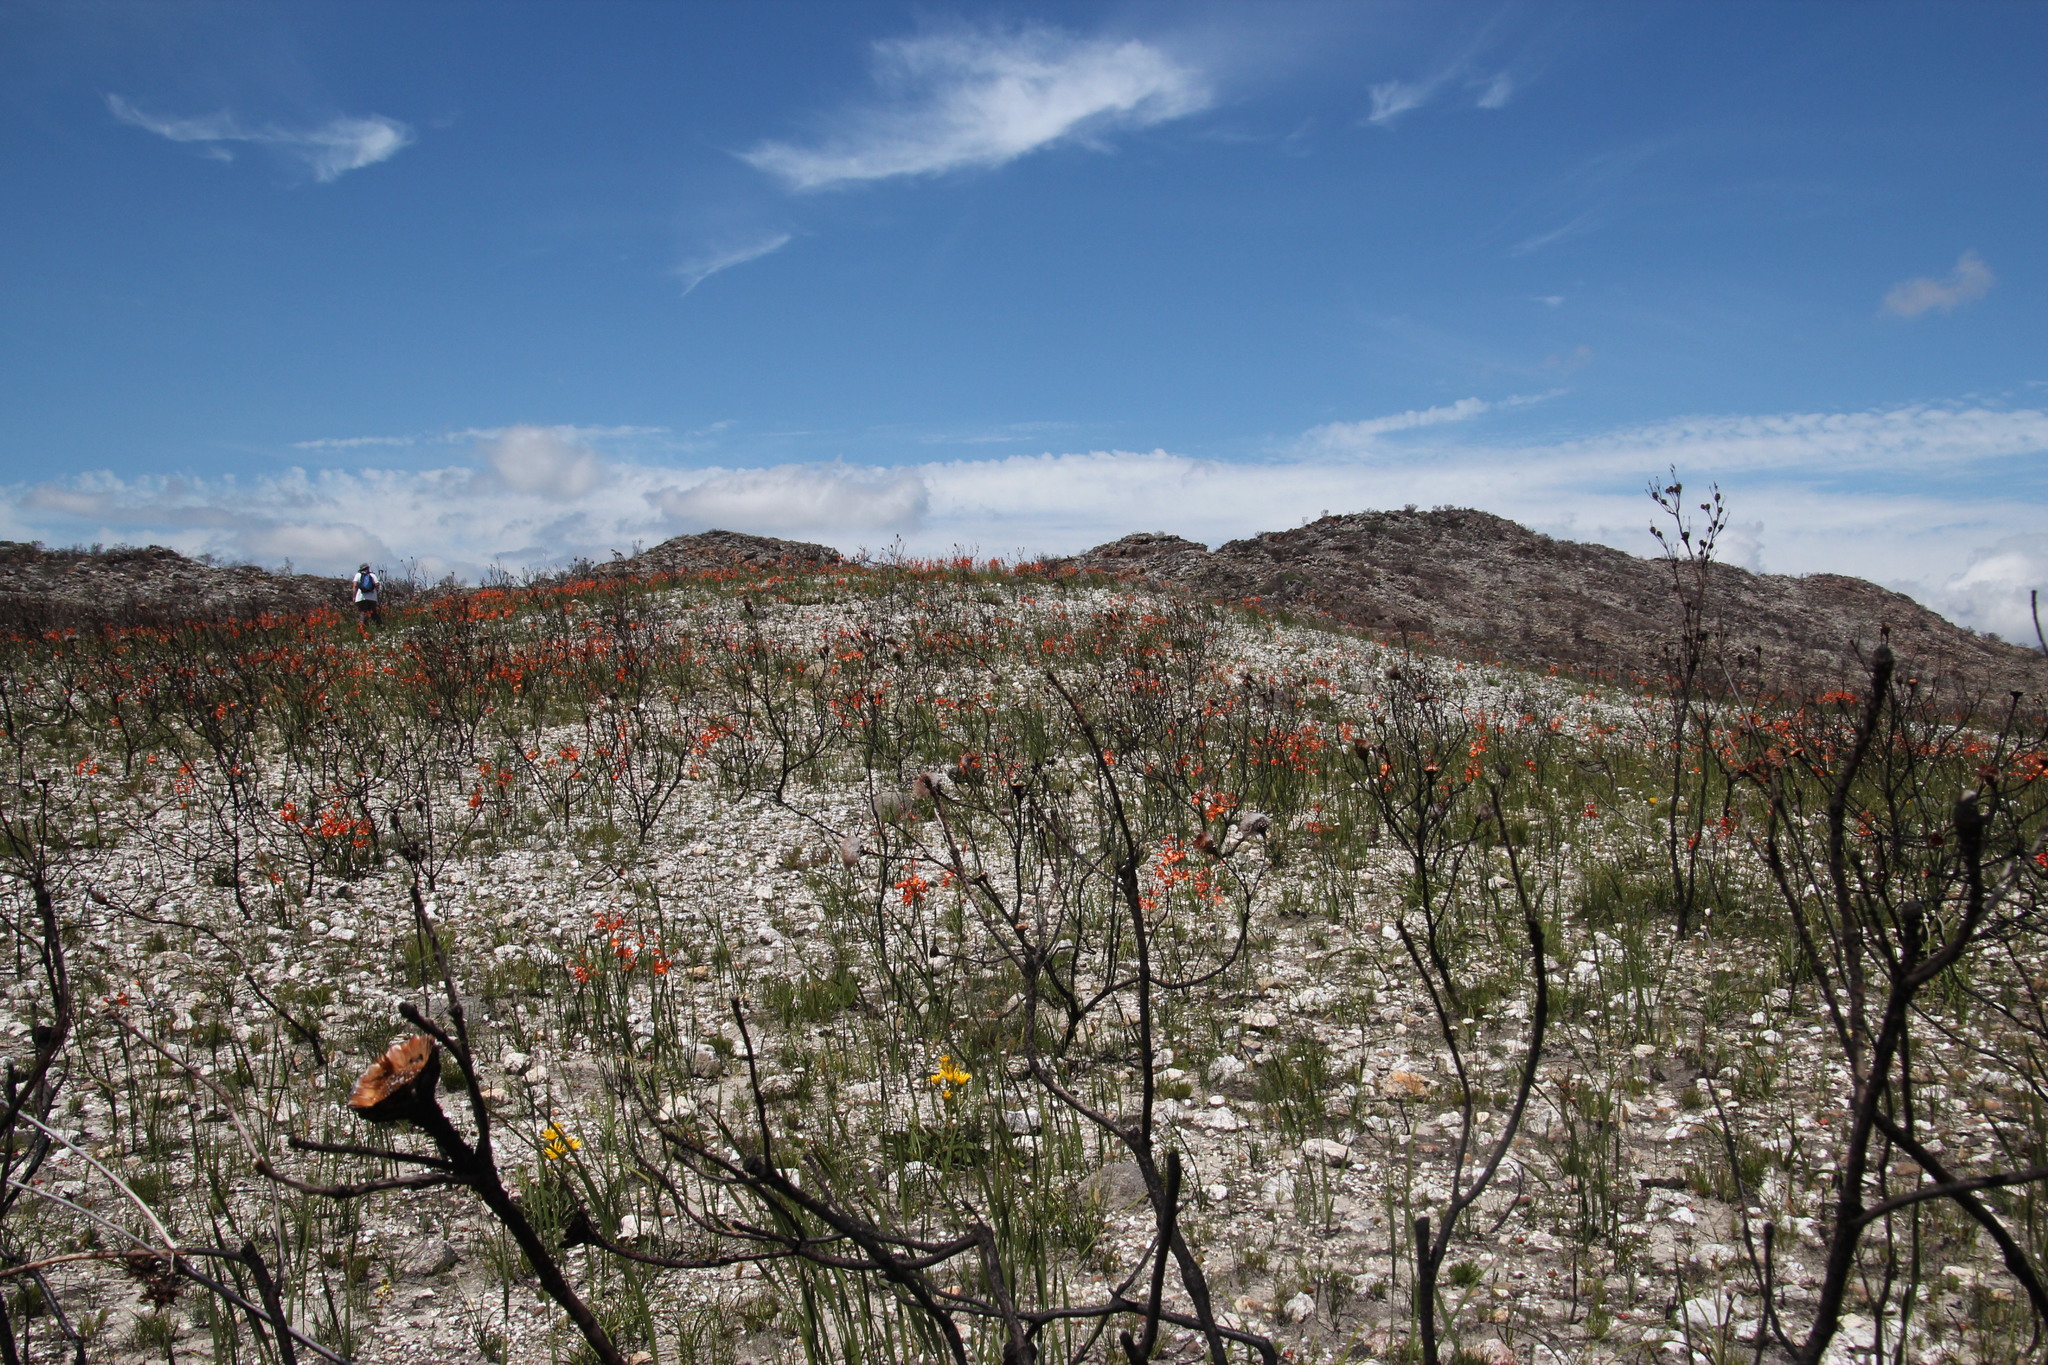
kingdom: Plantae
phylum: Tracheophyta
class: Liliopsida
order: Asparagales
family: Iridaceae
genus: Pillansia
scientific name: Pillansia templemannii
